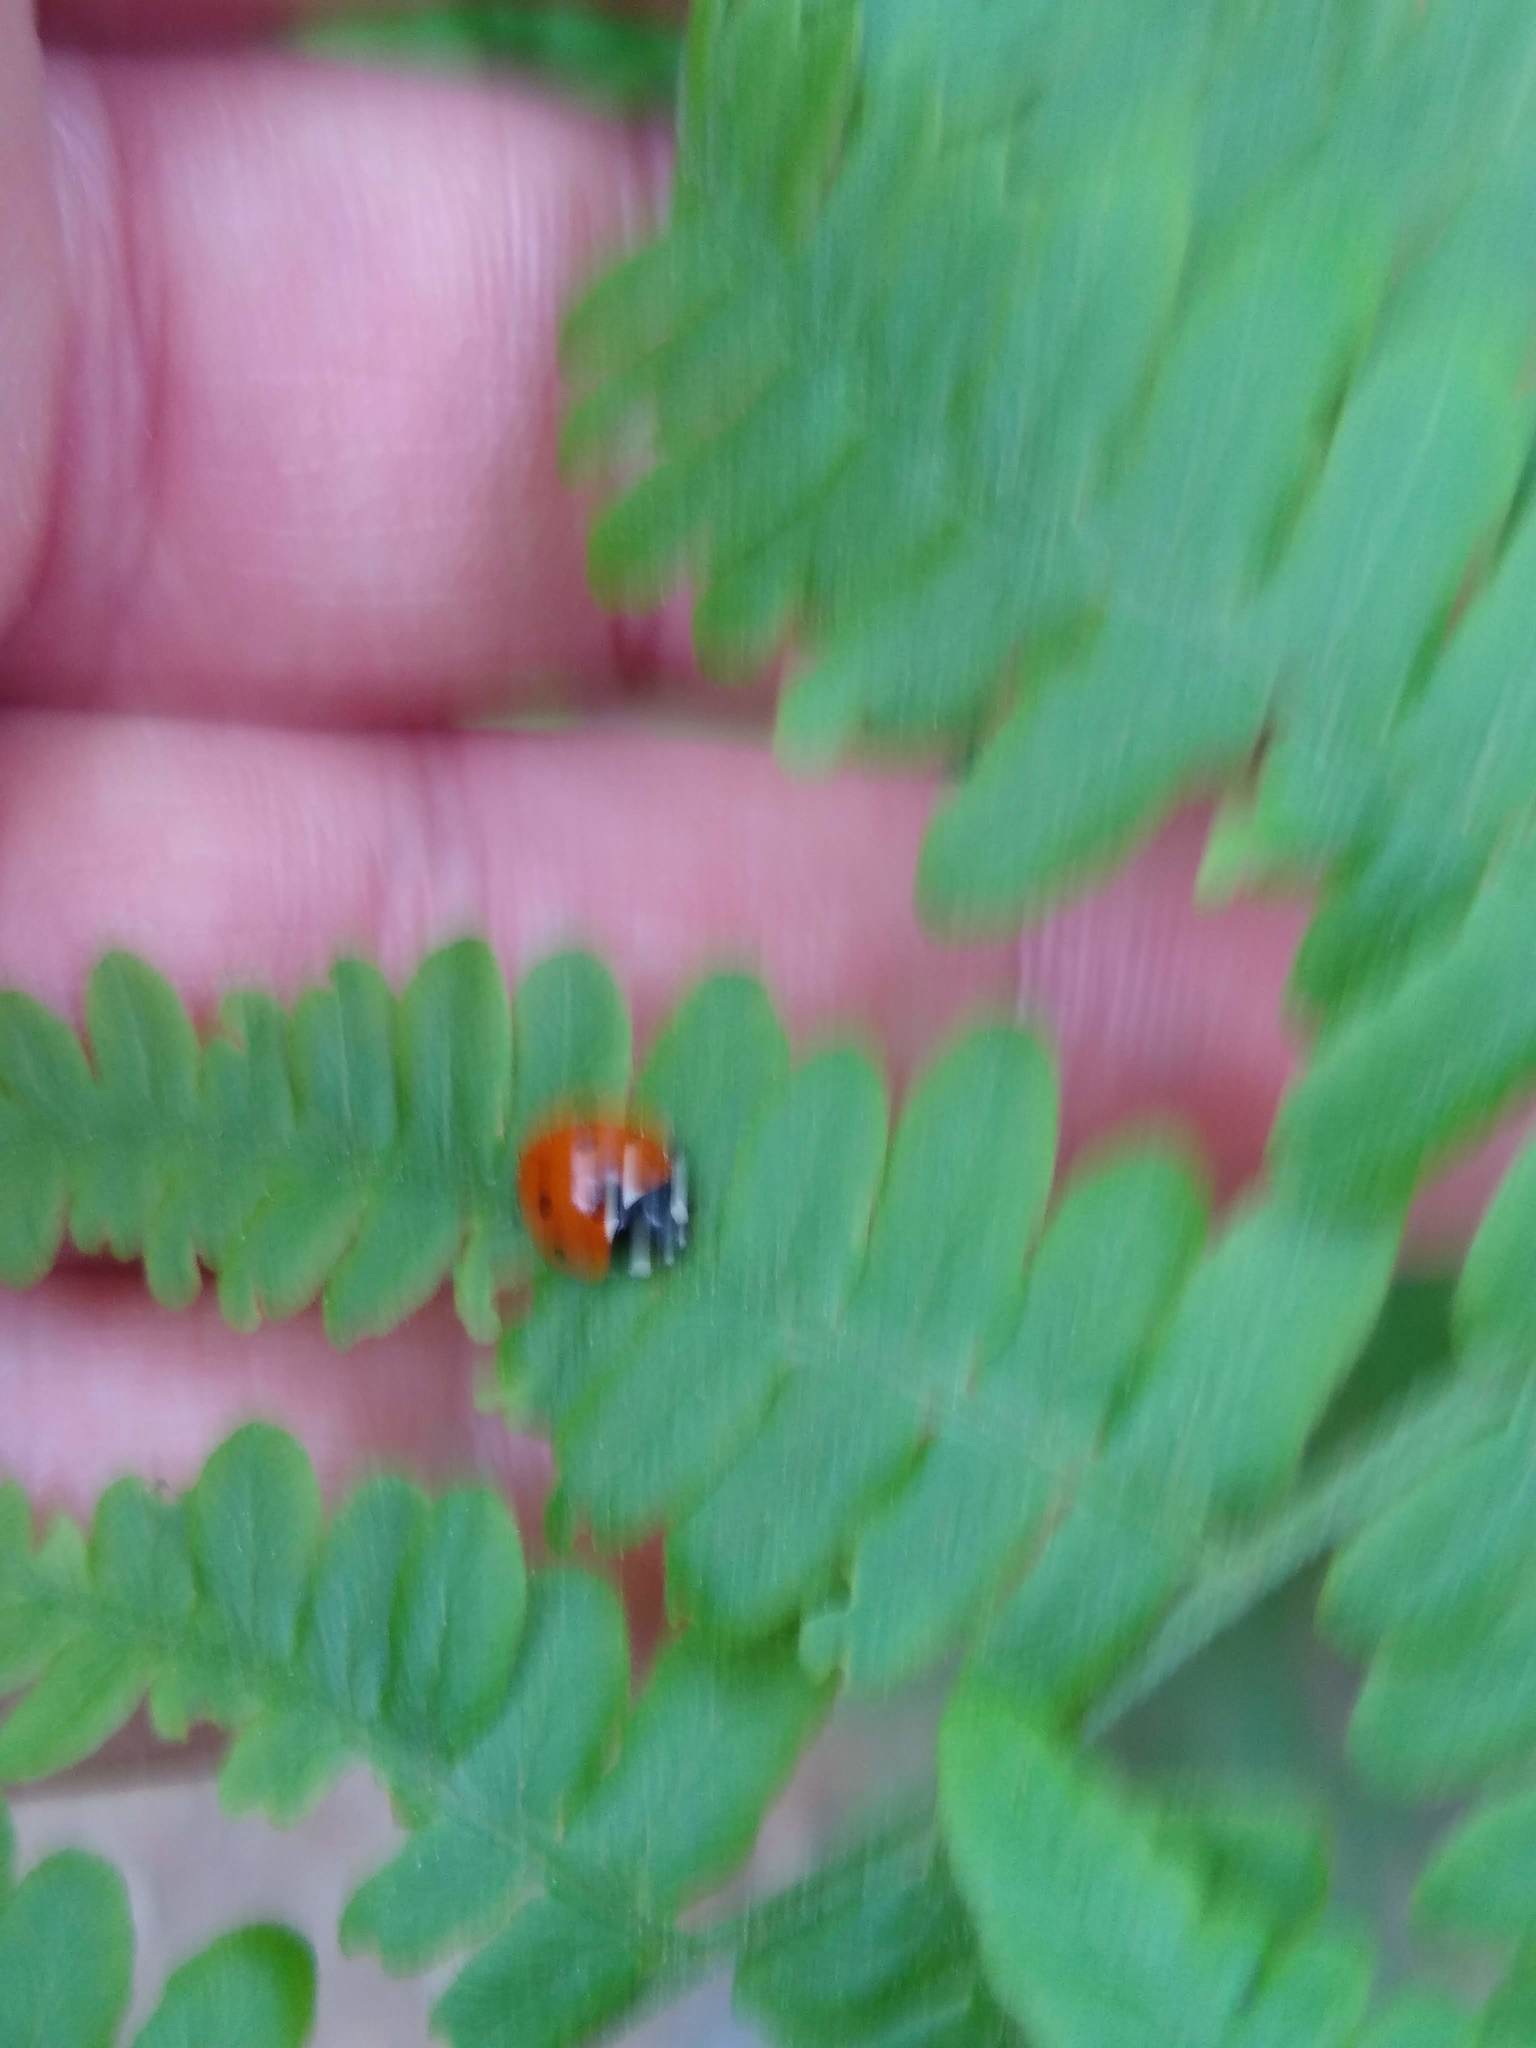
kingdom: Animalia
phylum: Arthropoda
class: Insecta
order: Coleoptera
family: Coccinellidae
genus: Coccinella
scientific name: Coccinella septempunctata
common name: Sevenspotted lady beetle
